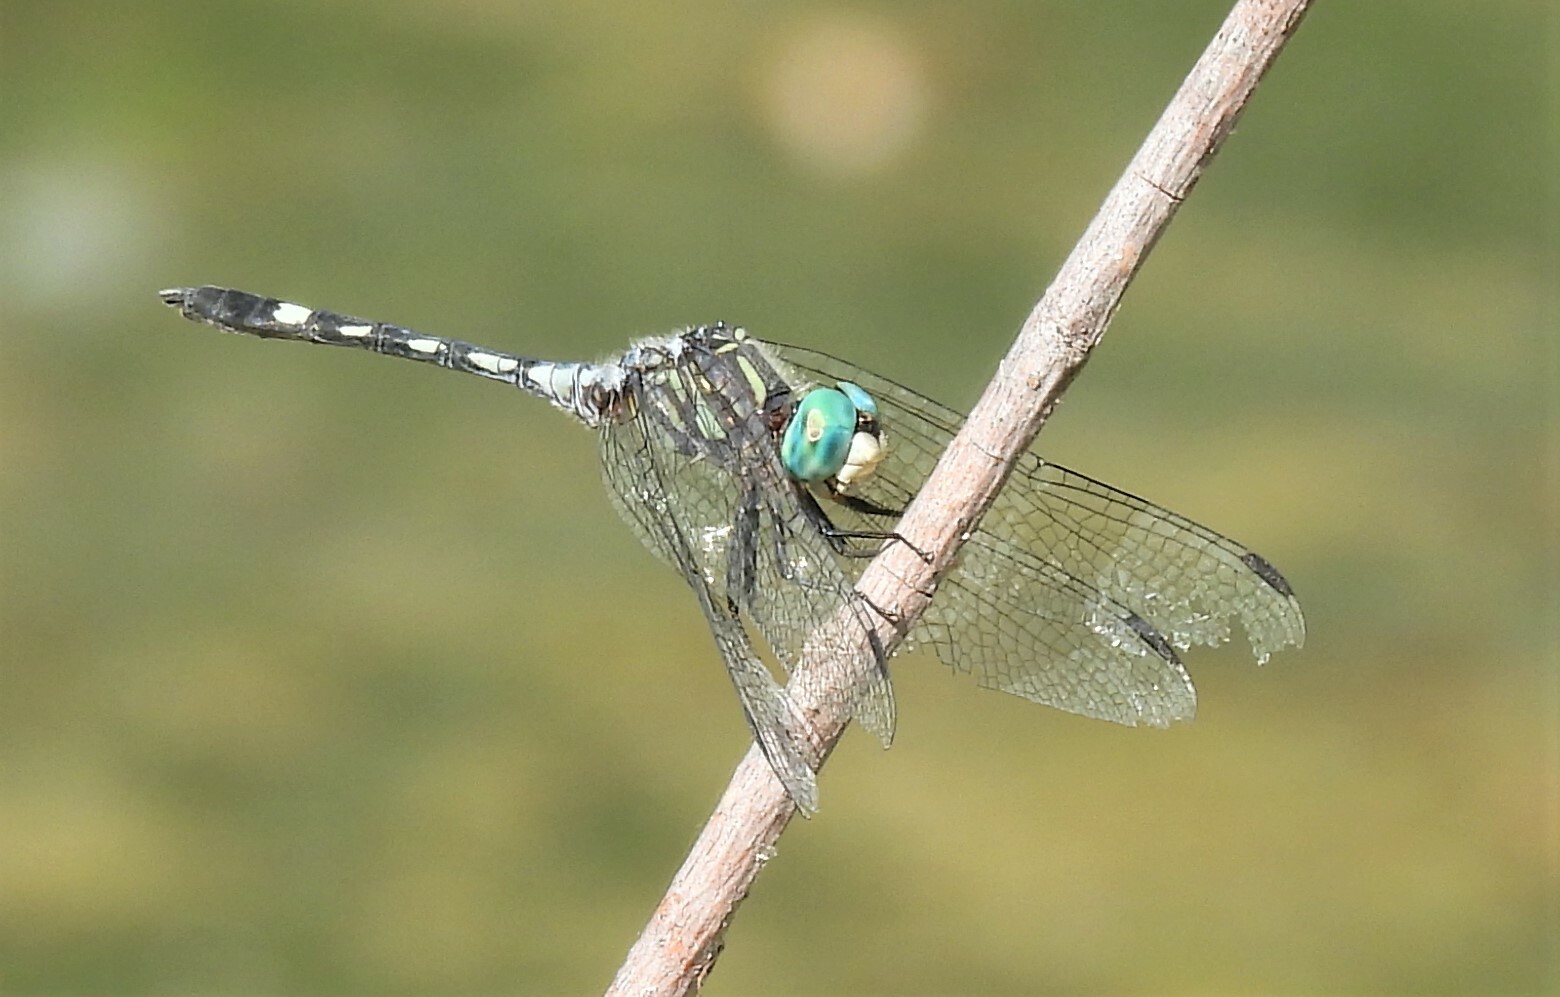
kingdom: Animalia
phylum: Arthropoda
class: Insecta
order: Odonata
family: Libellulidae
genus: Micrathyria
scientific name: Micrathyria hagenii
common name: Thornbush dasher
